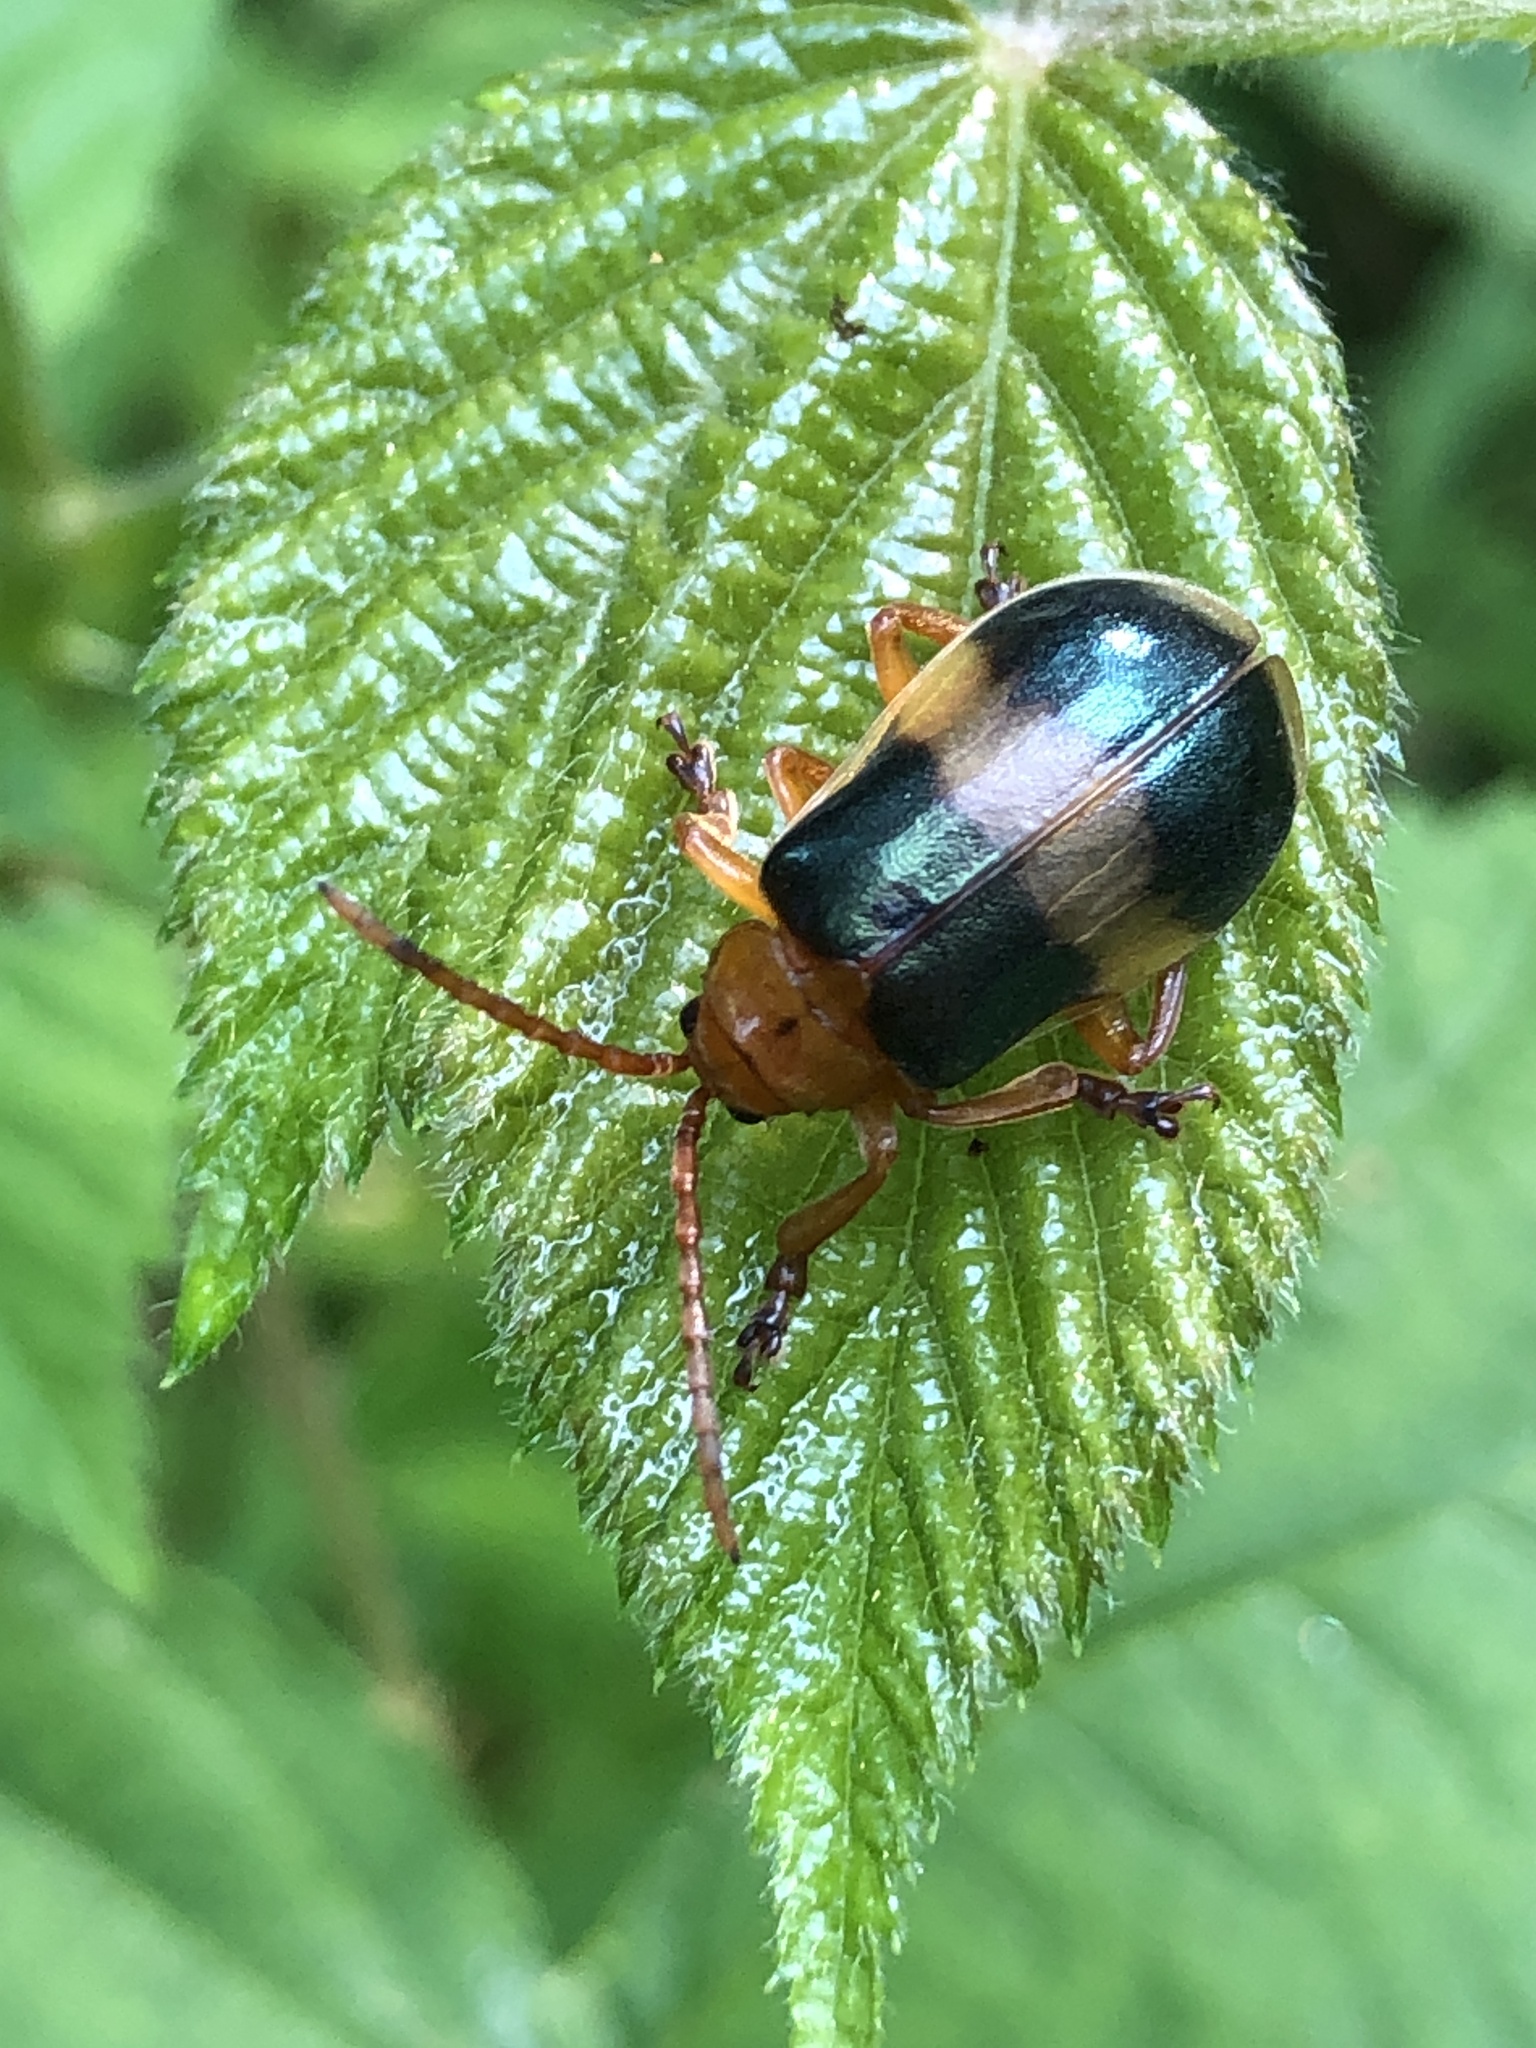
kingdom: Animalia
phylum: Arthropoda
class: Insecta
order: Coleoptera
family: Chrysomelidae
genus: Monocesta
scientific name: Monocesta coryli
